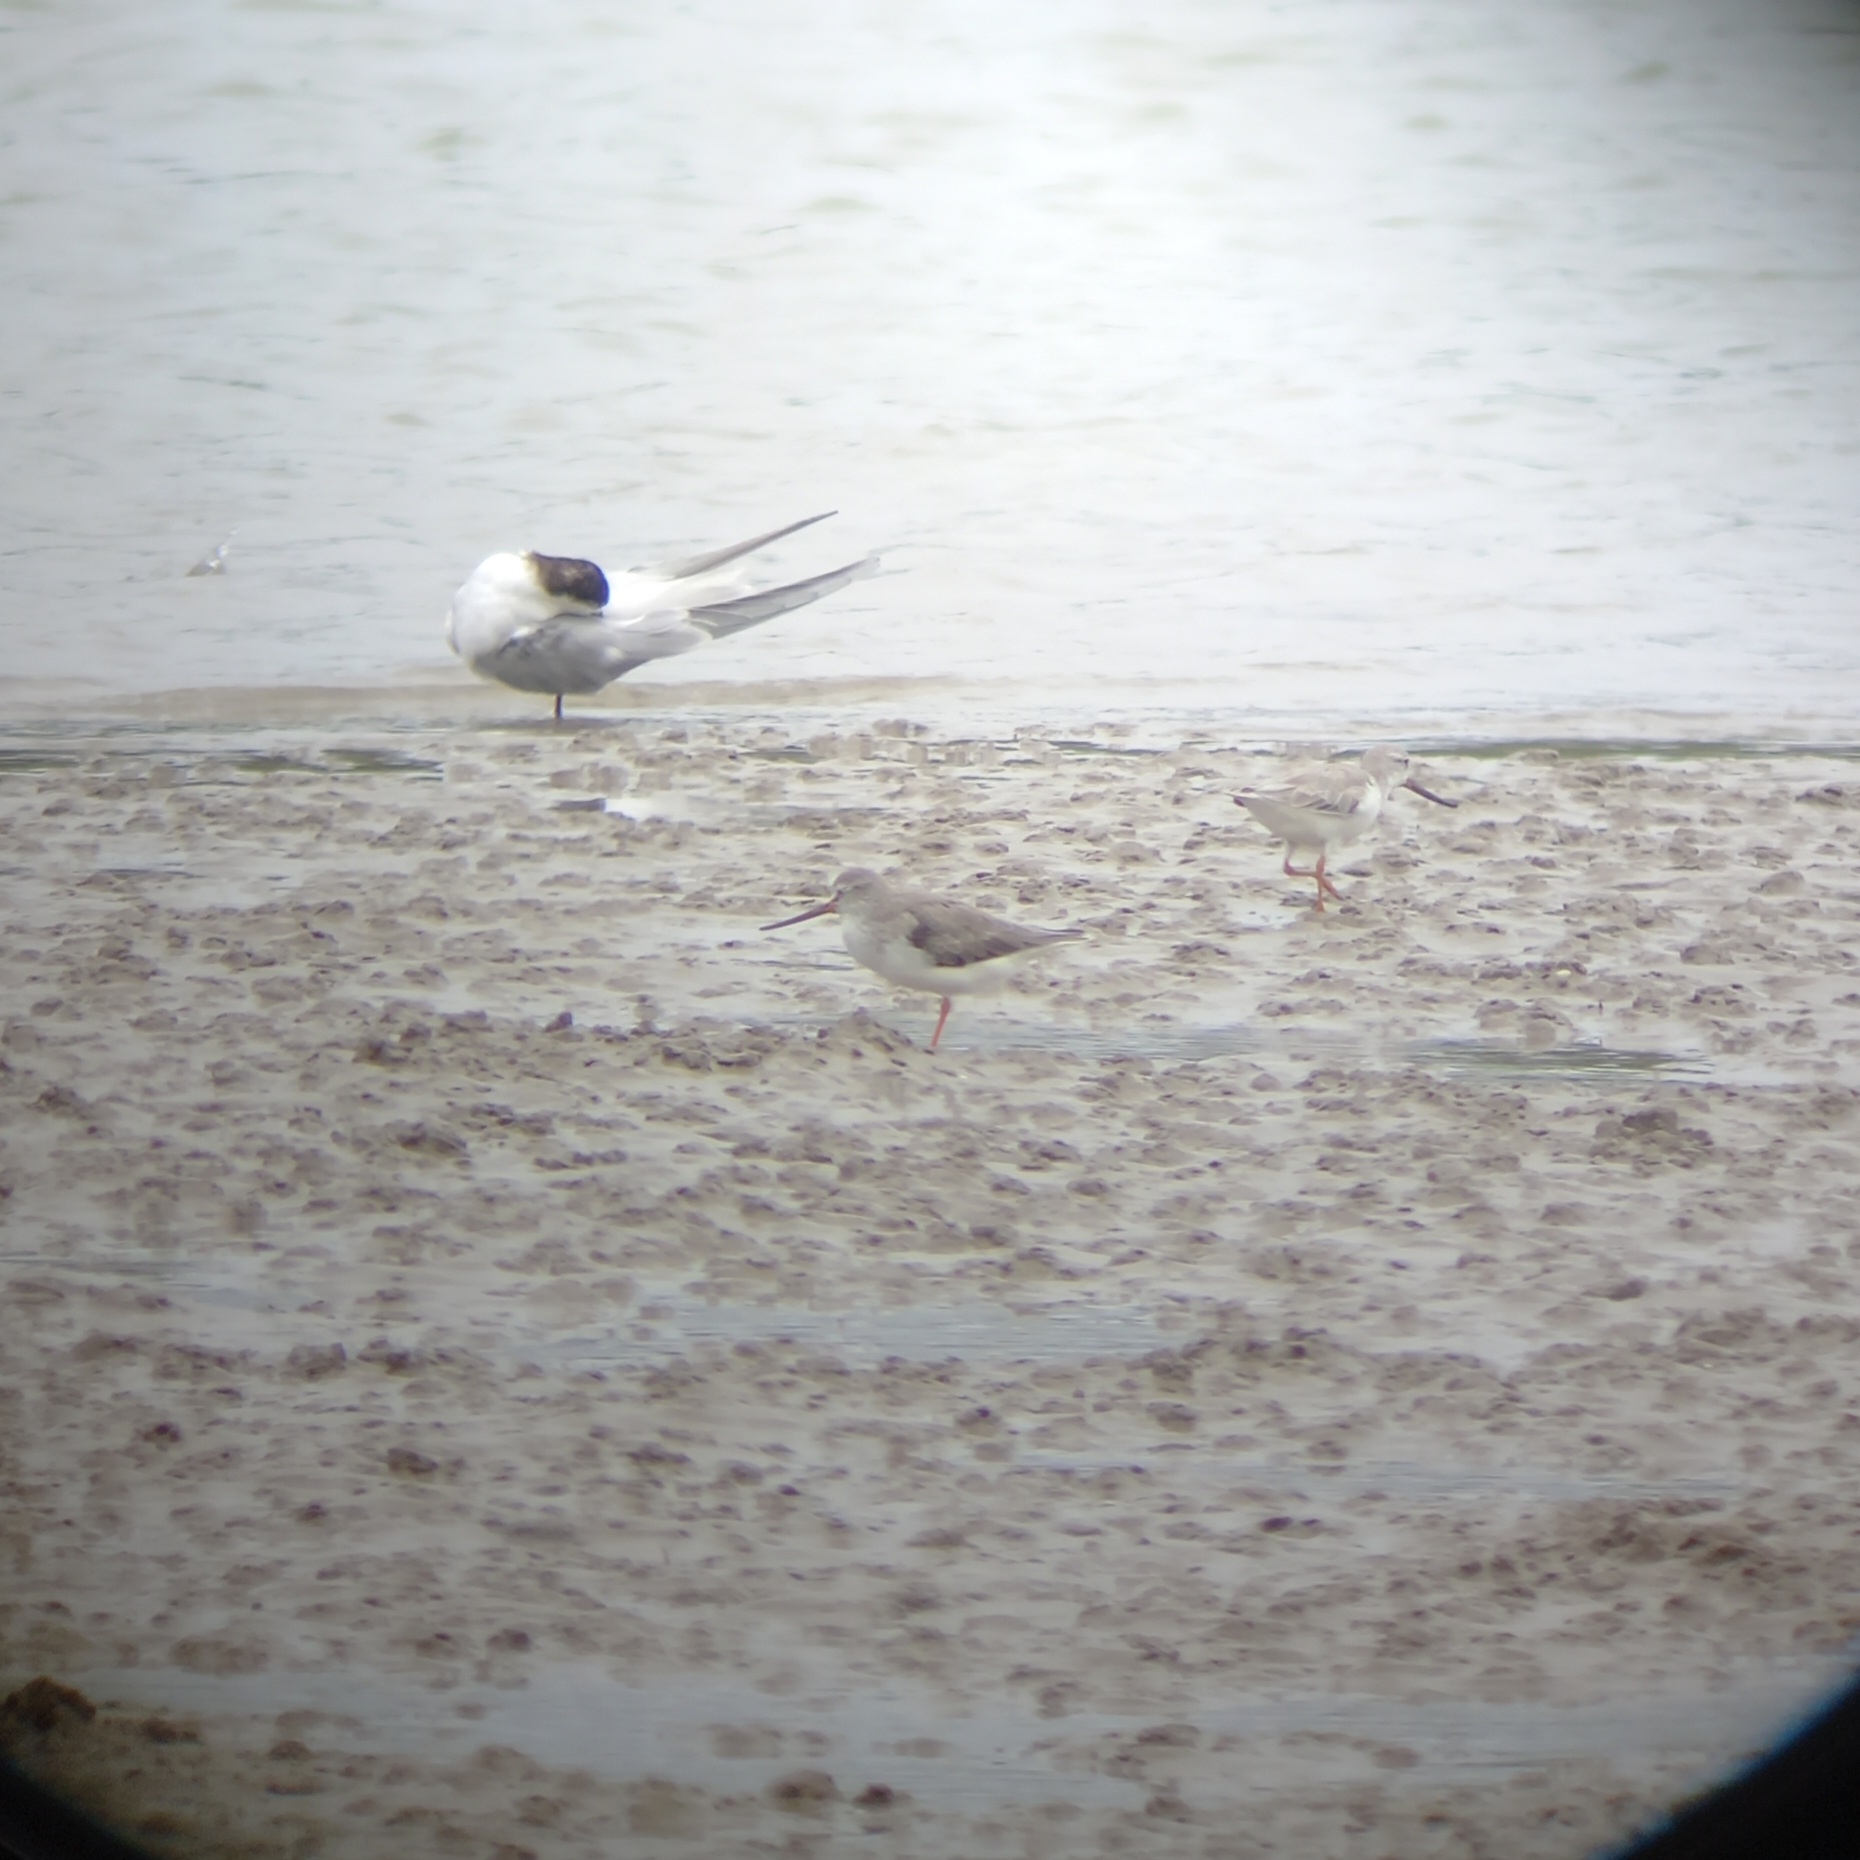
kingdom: Animalia
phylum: Chordata
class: Aves
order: Charadriiformes
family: Scolopacidae
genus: Xenus
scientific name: Xenus cinereus
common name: Terek sandpiper
